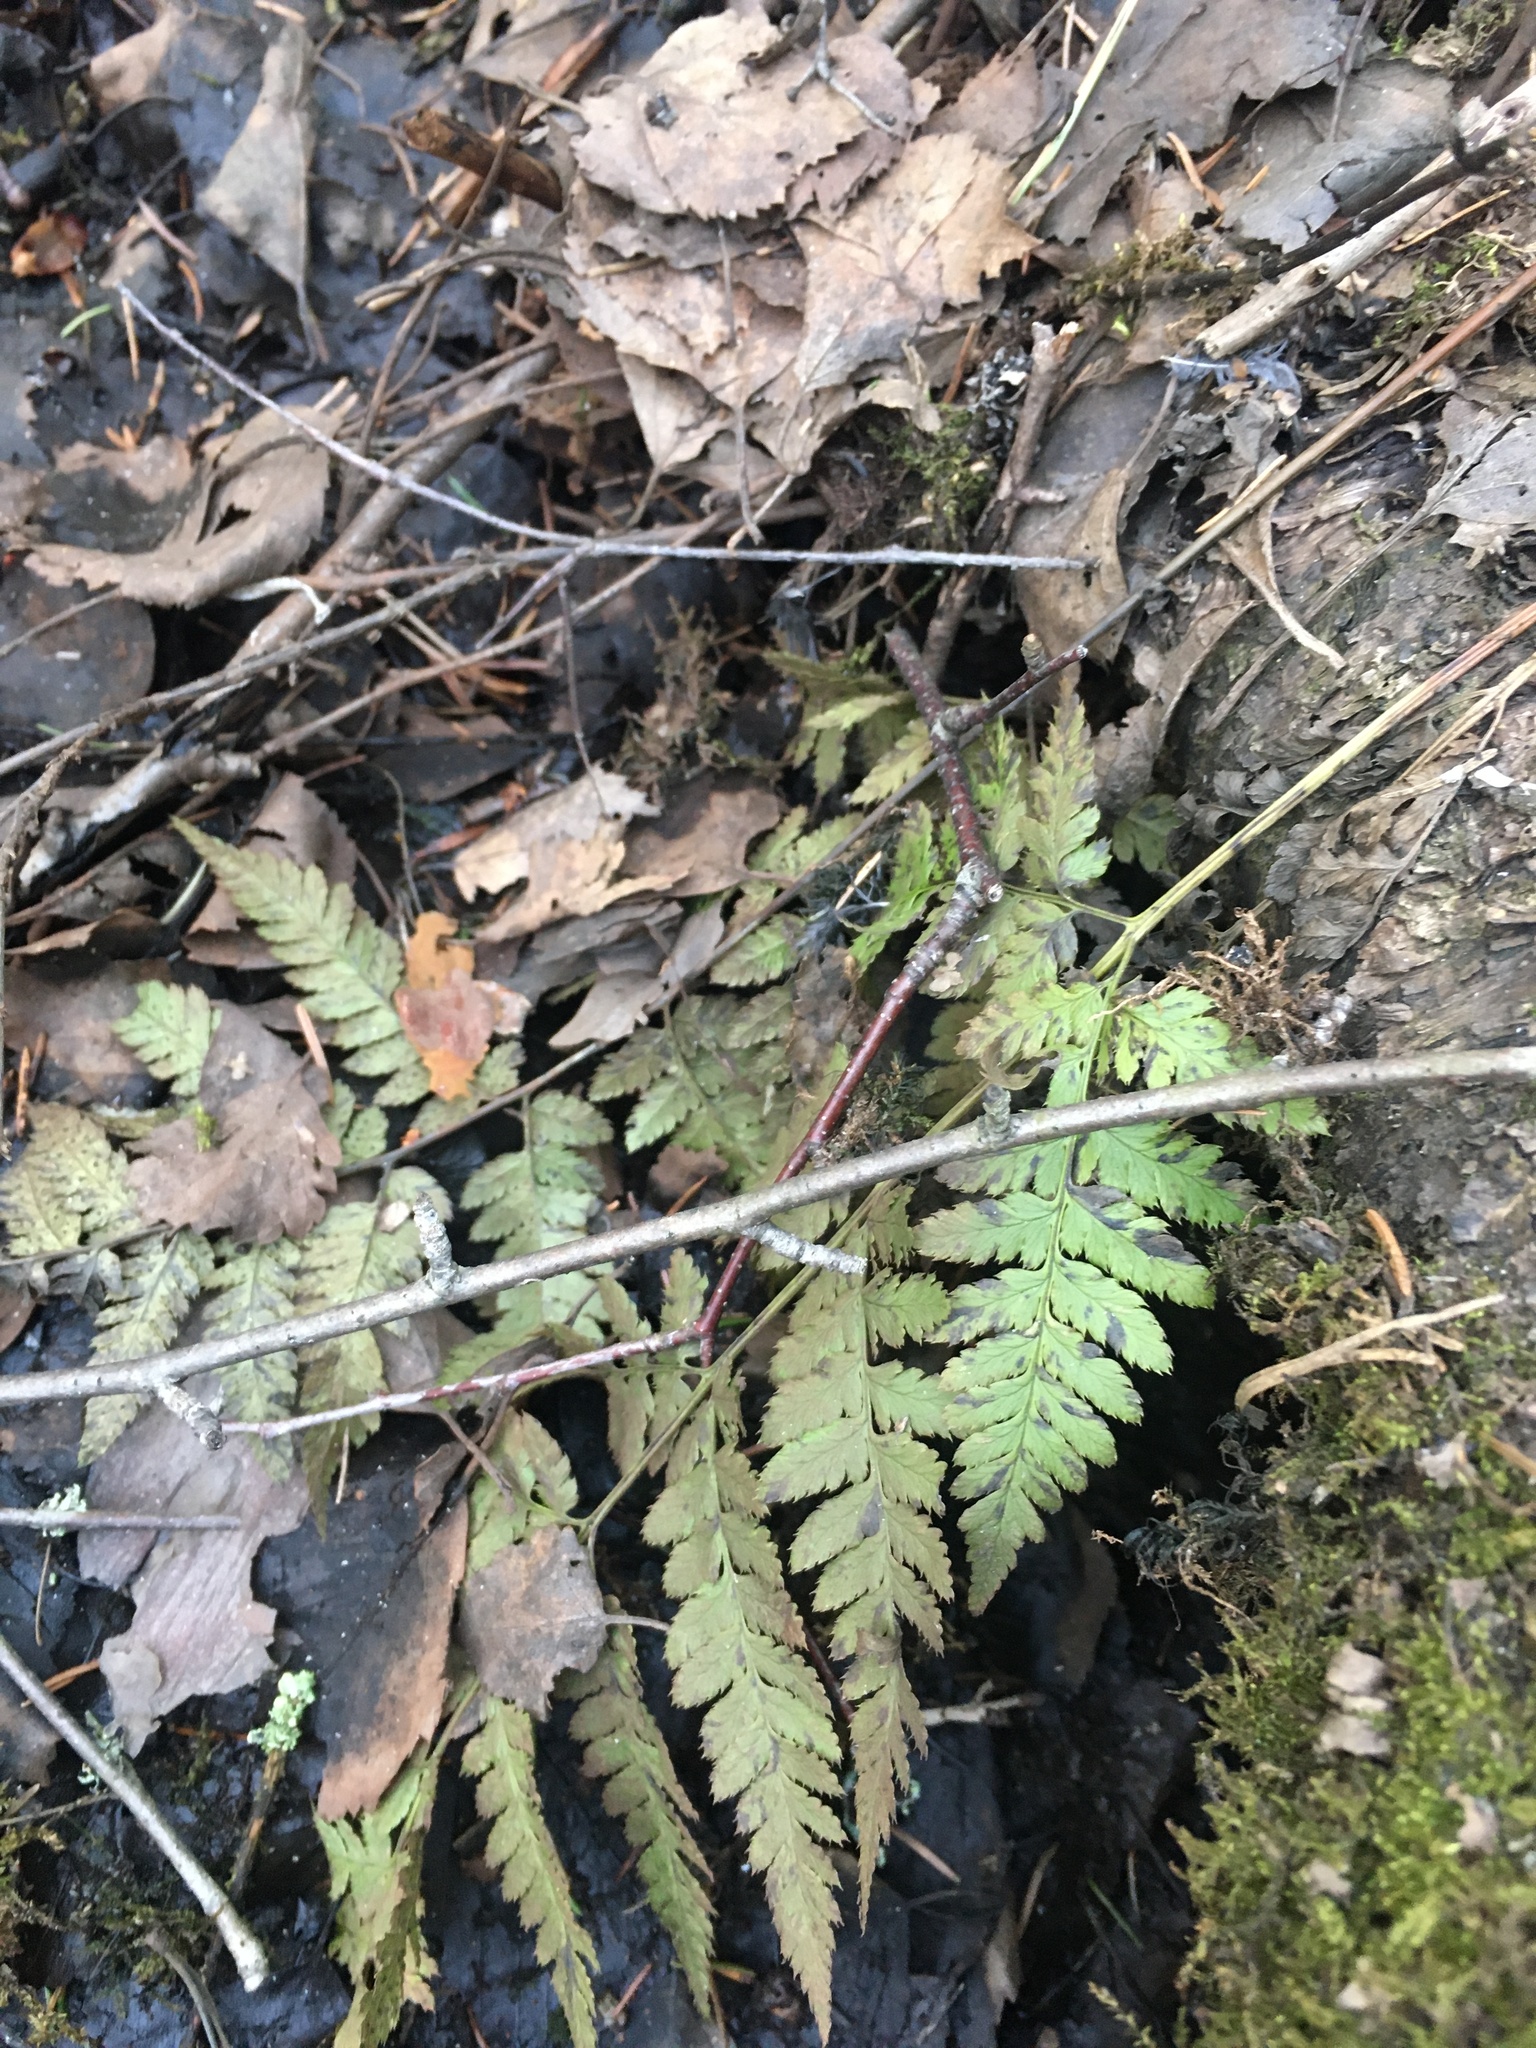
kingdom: Plantae
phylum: Tracheophyta
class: Polypodiopsida
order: Polypodiales
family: Dryopteridaceae
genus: Dryopteris
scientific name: Dryopteris carthusiana
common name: Narrow buckler-fern
